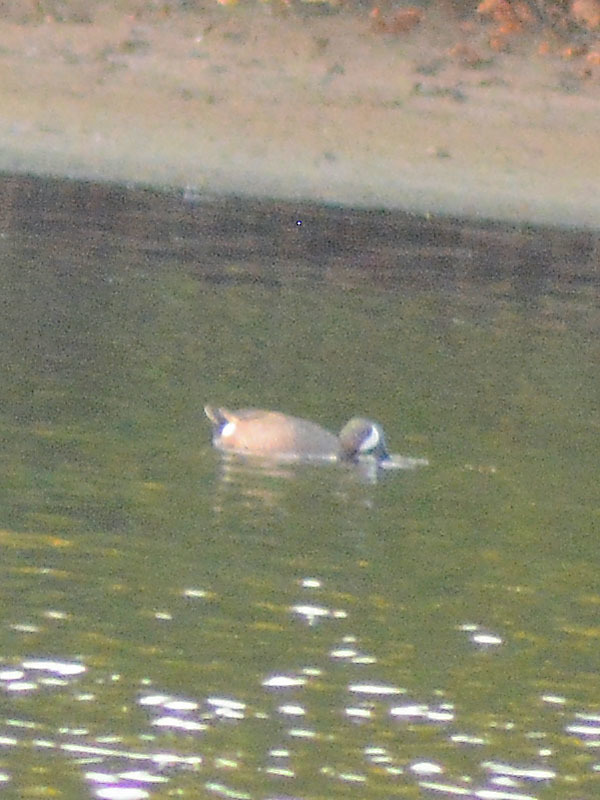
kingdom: Animalia
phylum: Chordata
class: Aves
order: Anseriformes
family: Anatidae
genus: Spatula
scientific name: Spatula discors
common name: Blue-winged teal
